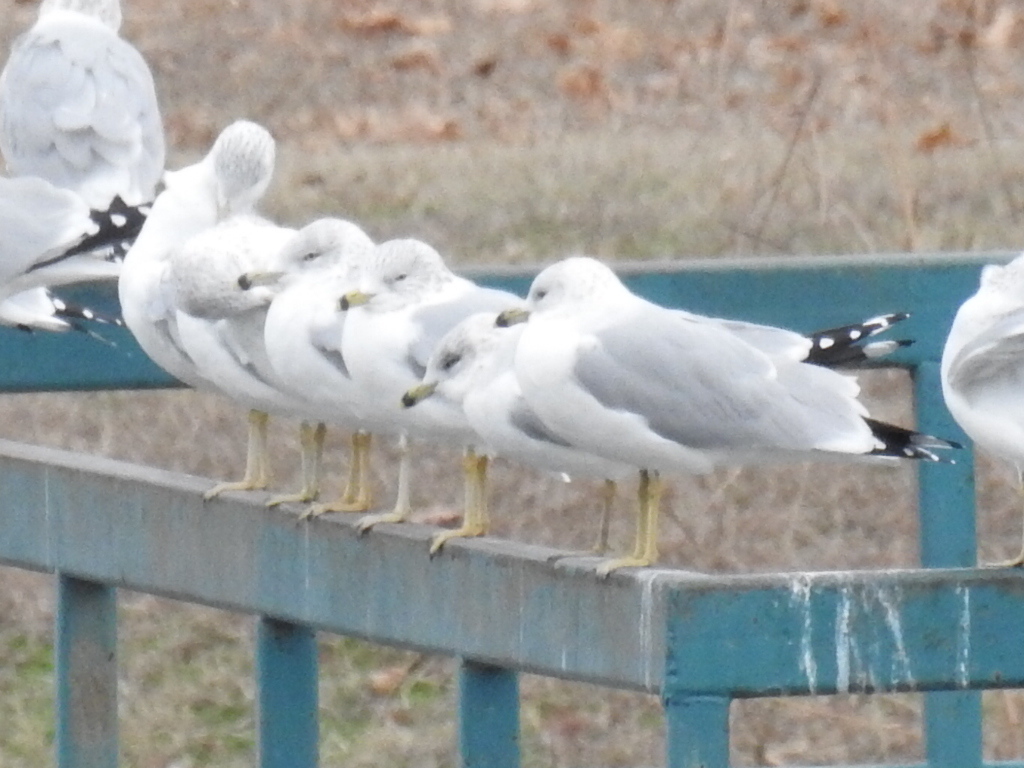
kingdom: Animalia
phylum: Chordata
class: Aves
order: Charadriiformes
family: Laridae
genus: Larus
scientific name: Larus delawarensis
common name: Ring-billed gull
